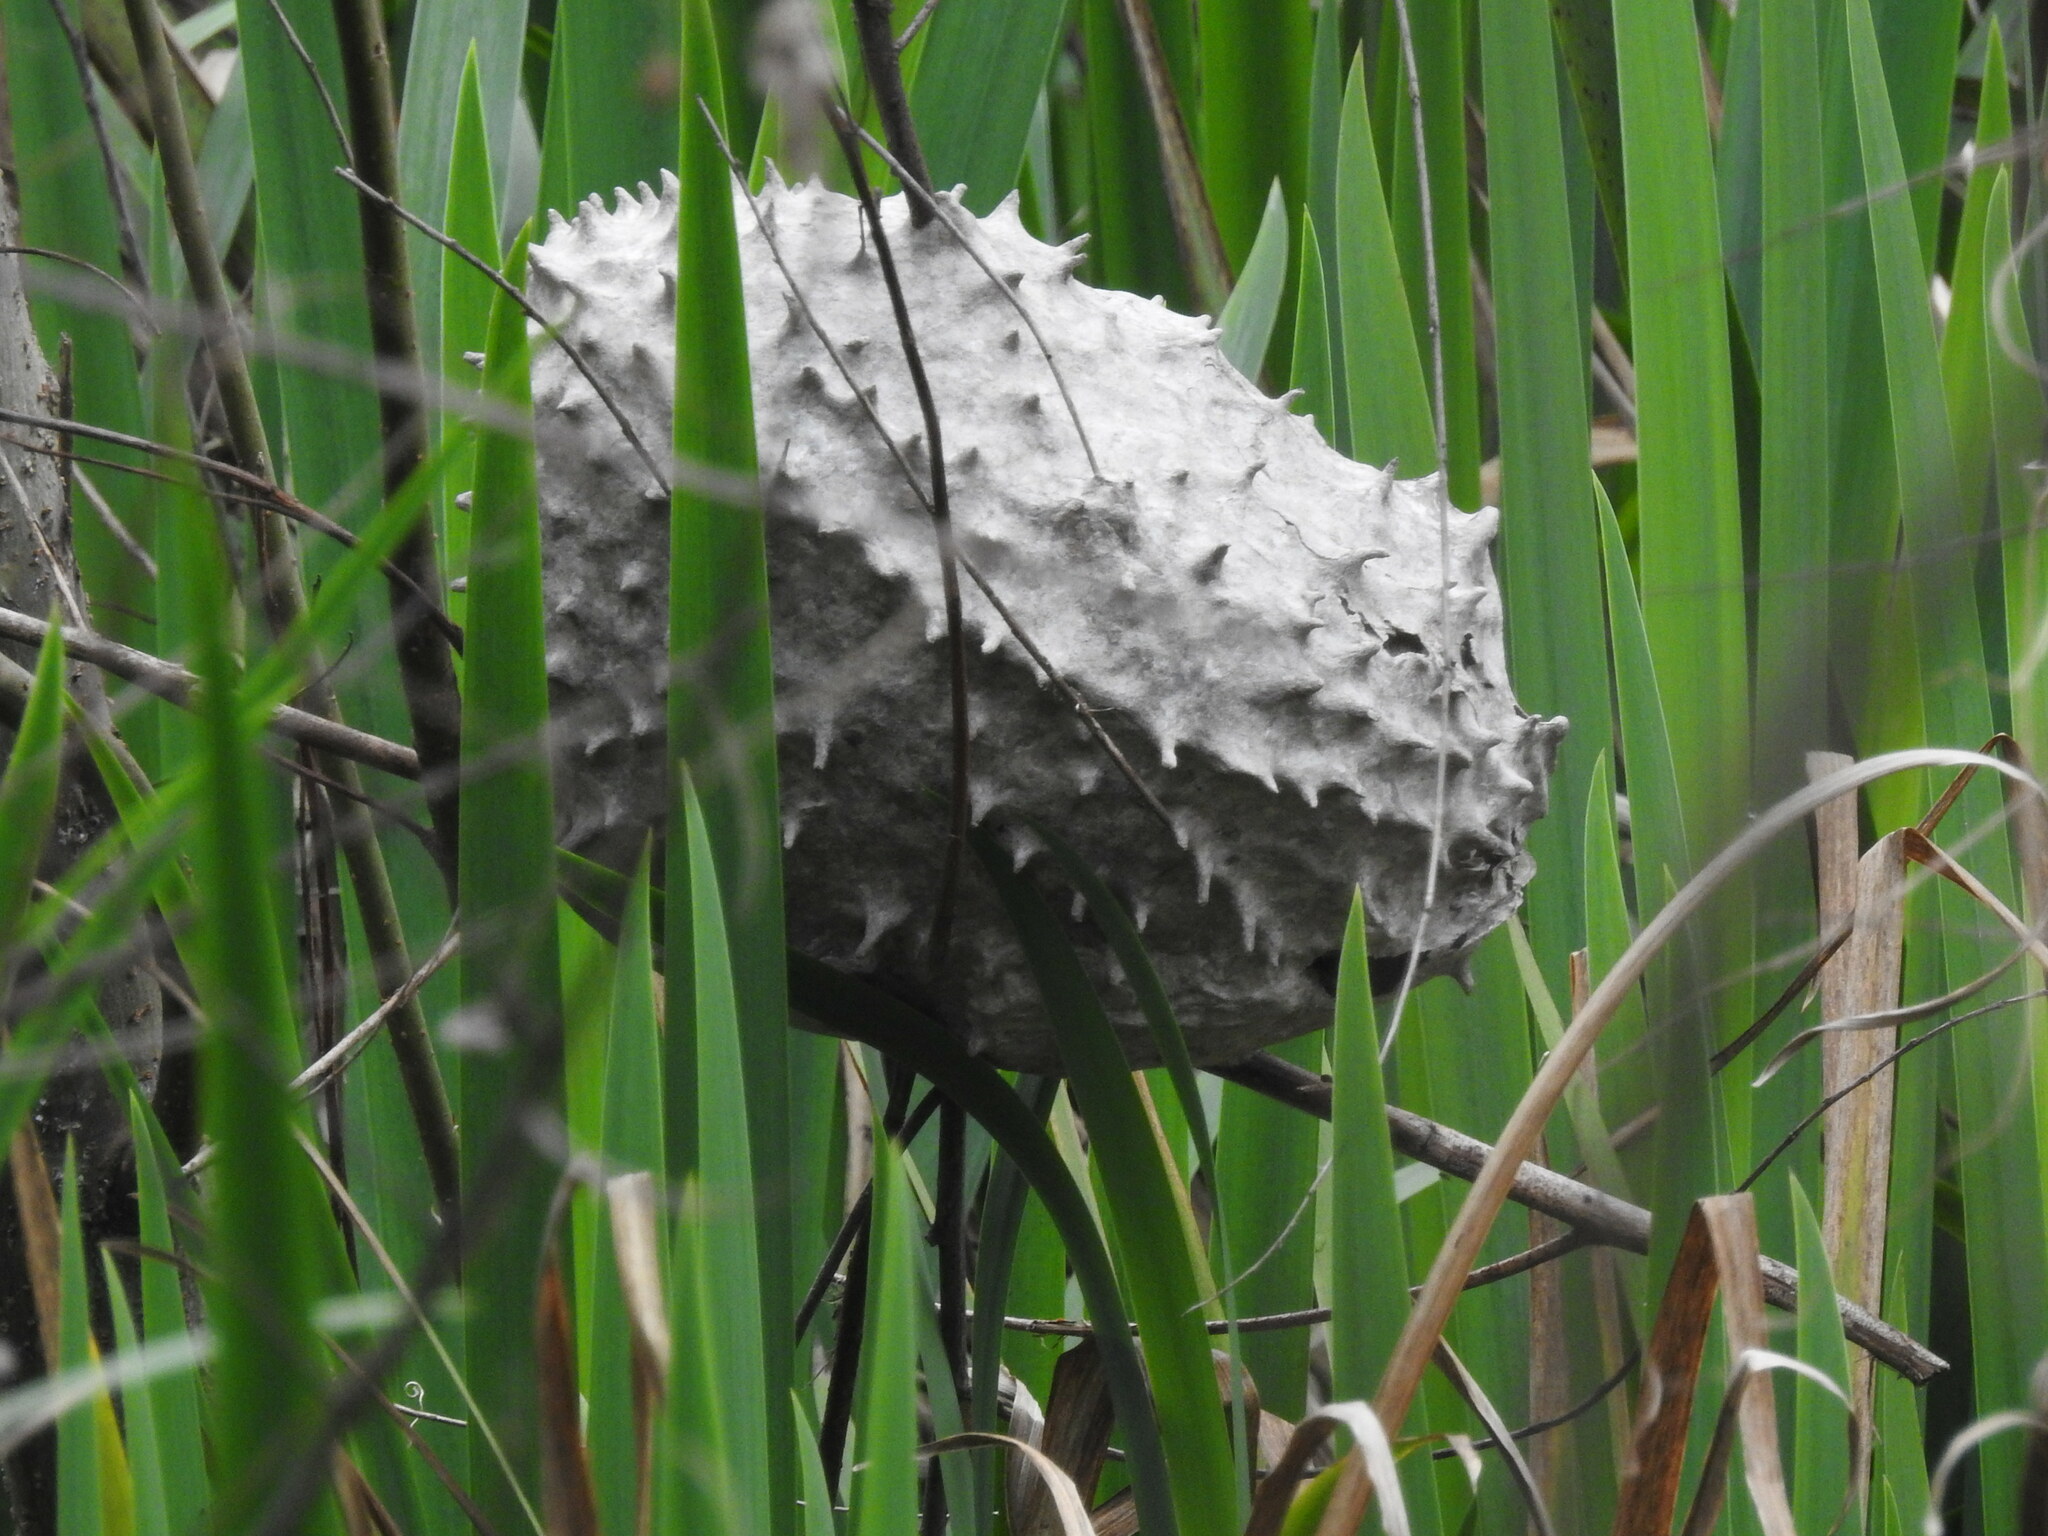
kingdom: Animalia
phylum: Arthropoda
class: Insecta
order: Hymenoptera
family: Eumenidae
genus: Polybia
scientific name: Polybia scutellaris
